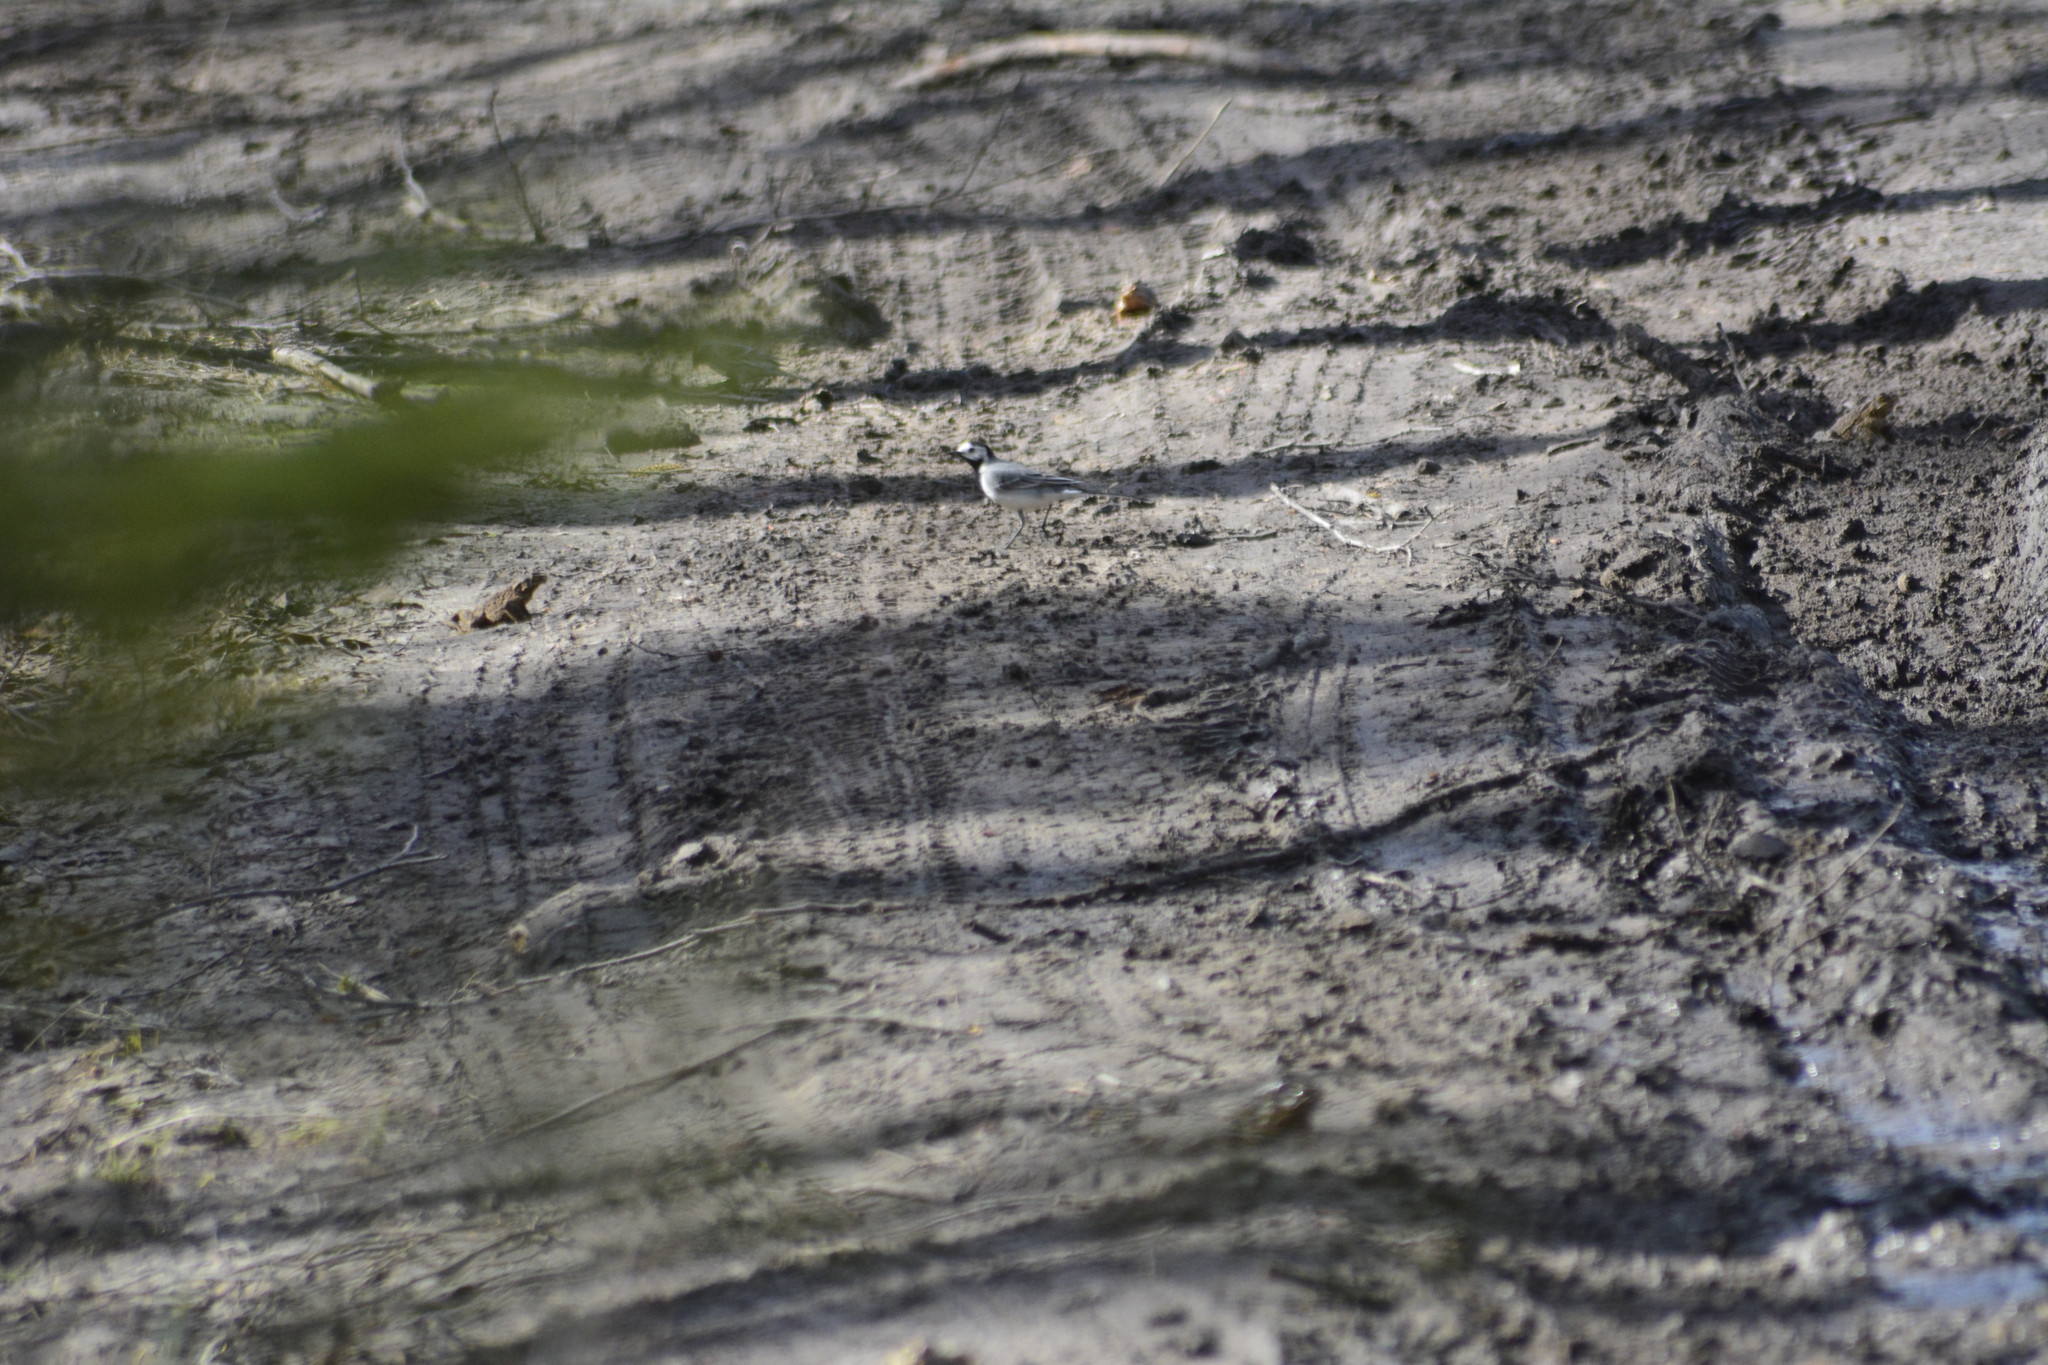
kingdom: Animalia
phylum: Chordata
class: Aves
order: Passeriformes
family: Motacillidae
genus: Motacilla
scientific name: Motacilla alba
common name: White wagtail
